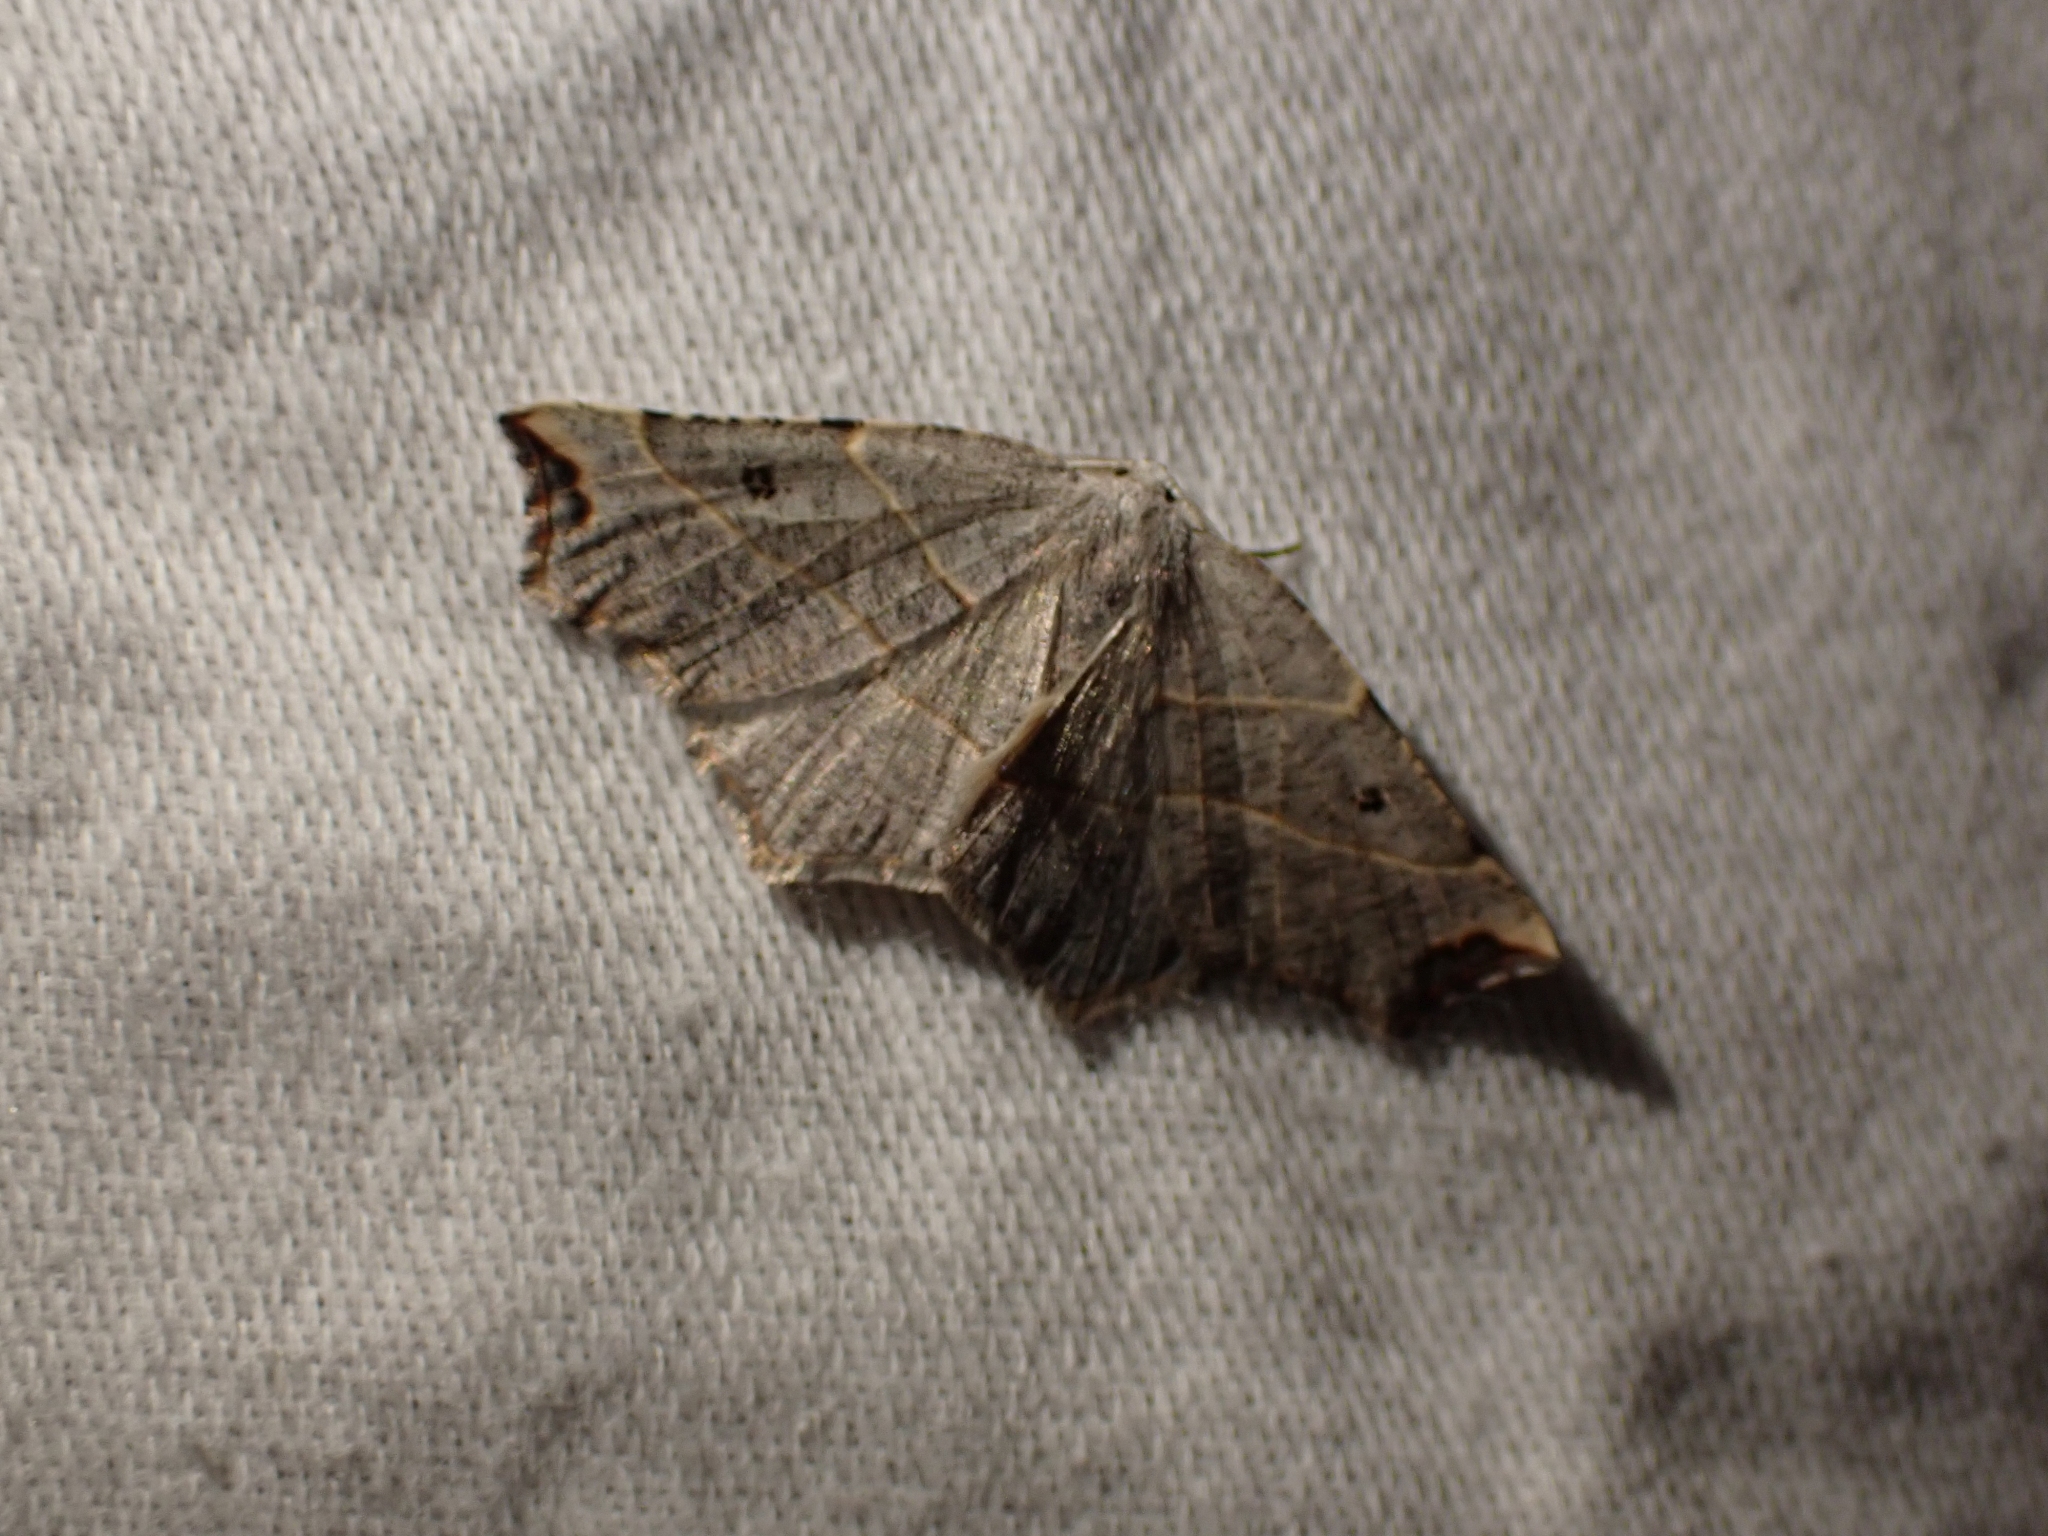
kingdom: Animalia
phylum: Arthropoda
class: Insecta
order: Lepidoptera
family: Geometridae
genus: Metanema
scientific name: Metanema inatomaria
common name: Pale metanema
